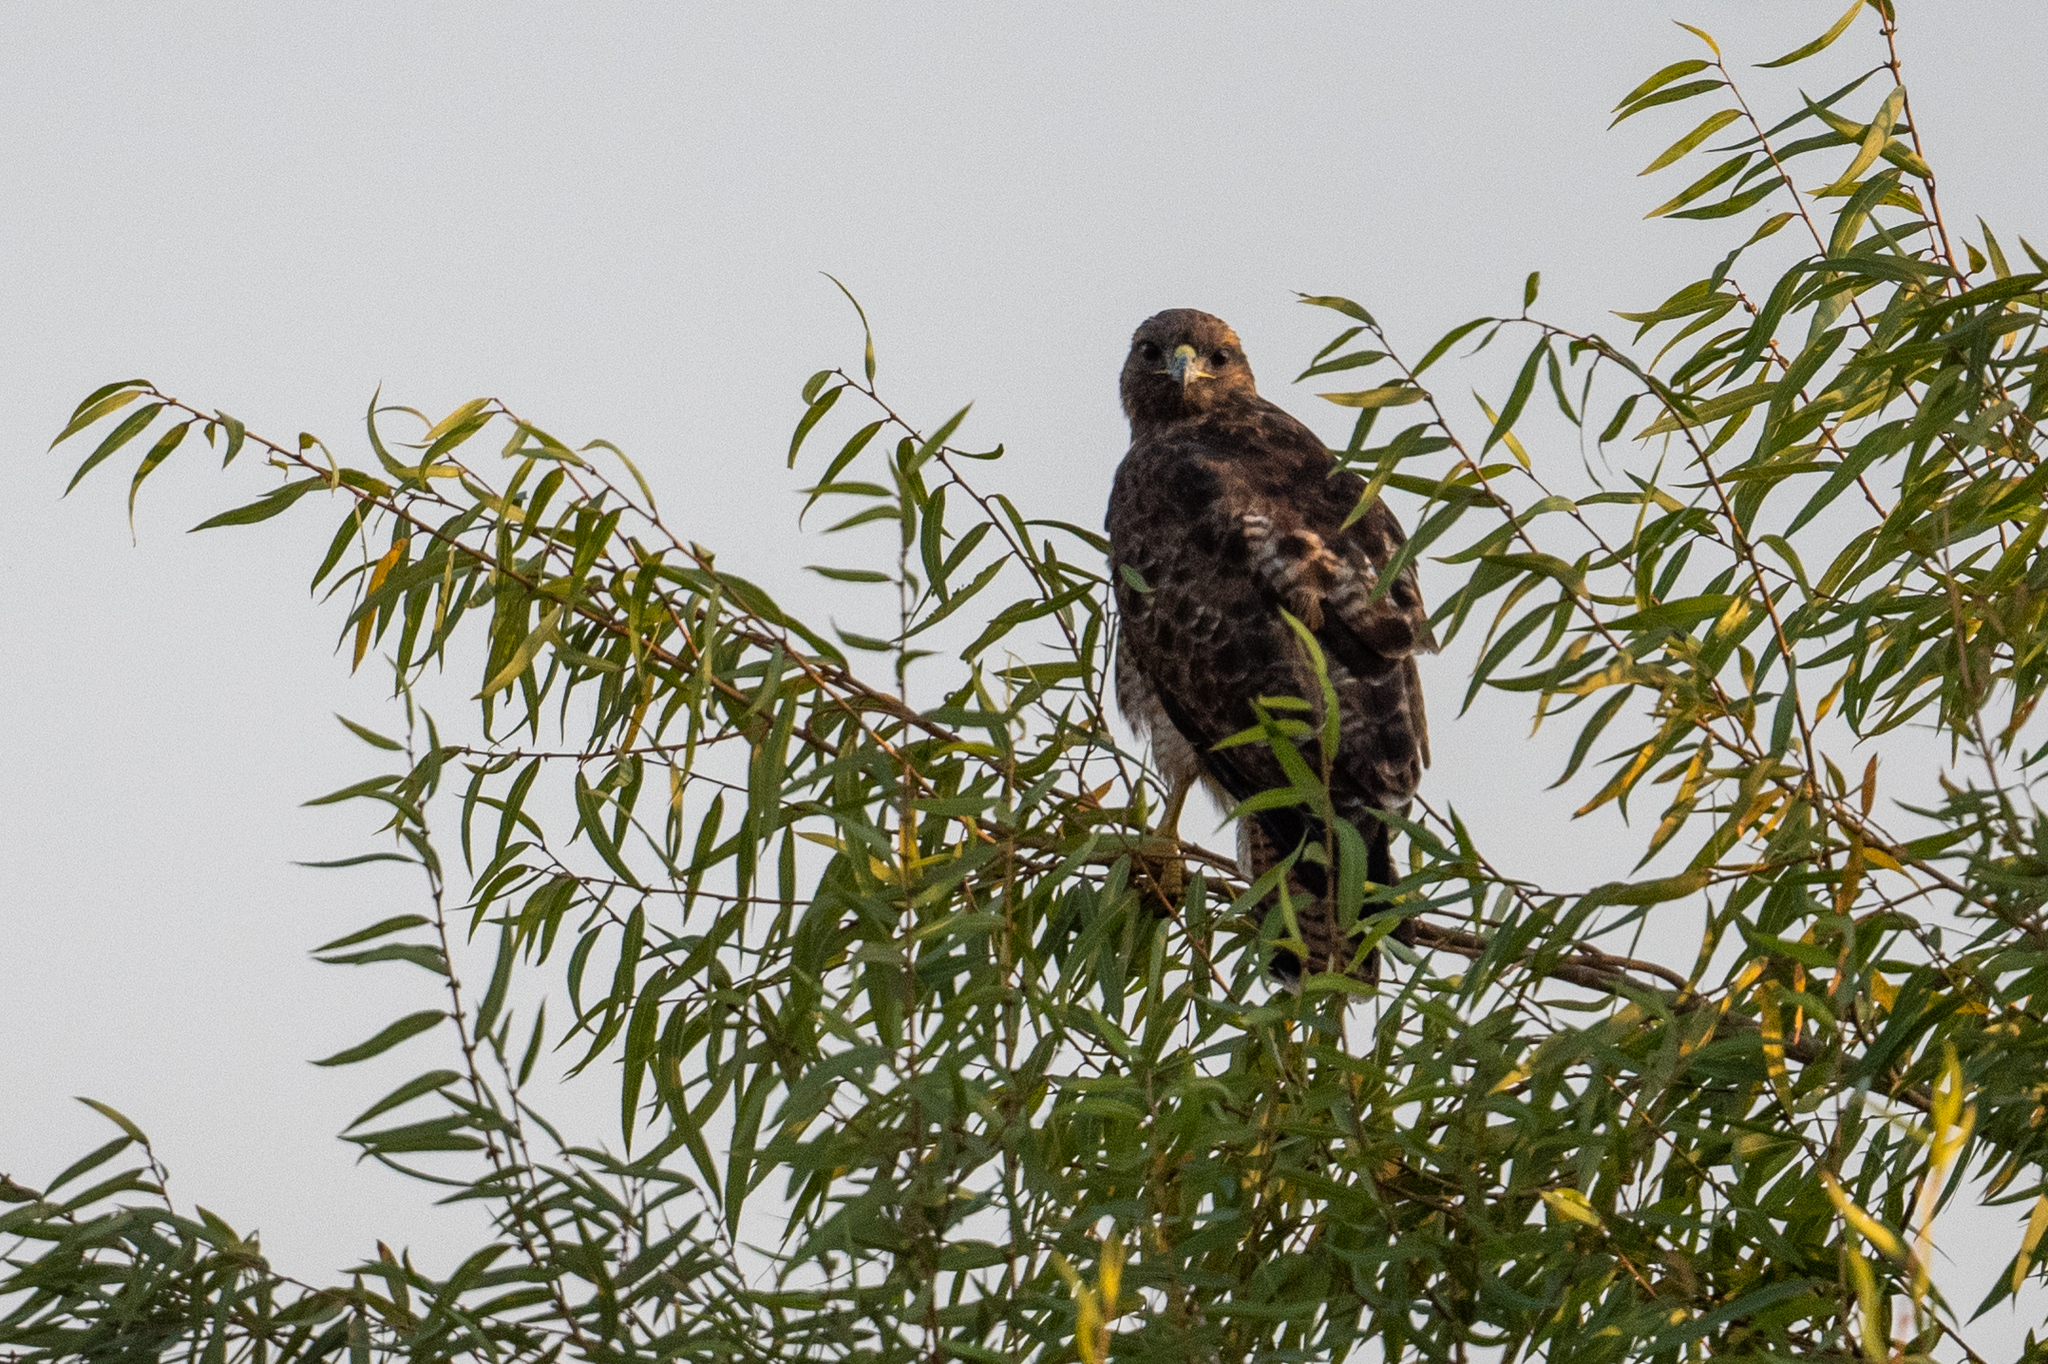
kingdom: Animalia
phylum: Chordata
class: Aves
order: Accipitriformes
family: Accipitridae
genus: Buteo
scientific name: Buteo jamaicensis
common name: Red-tailed hawk
